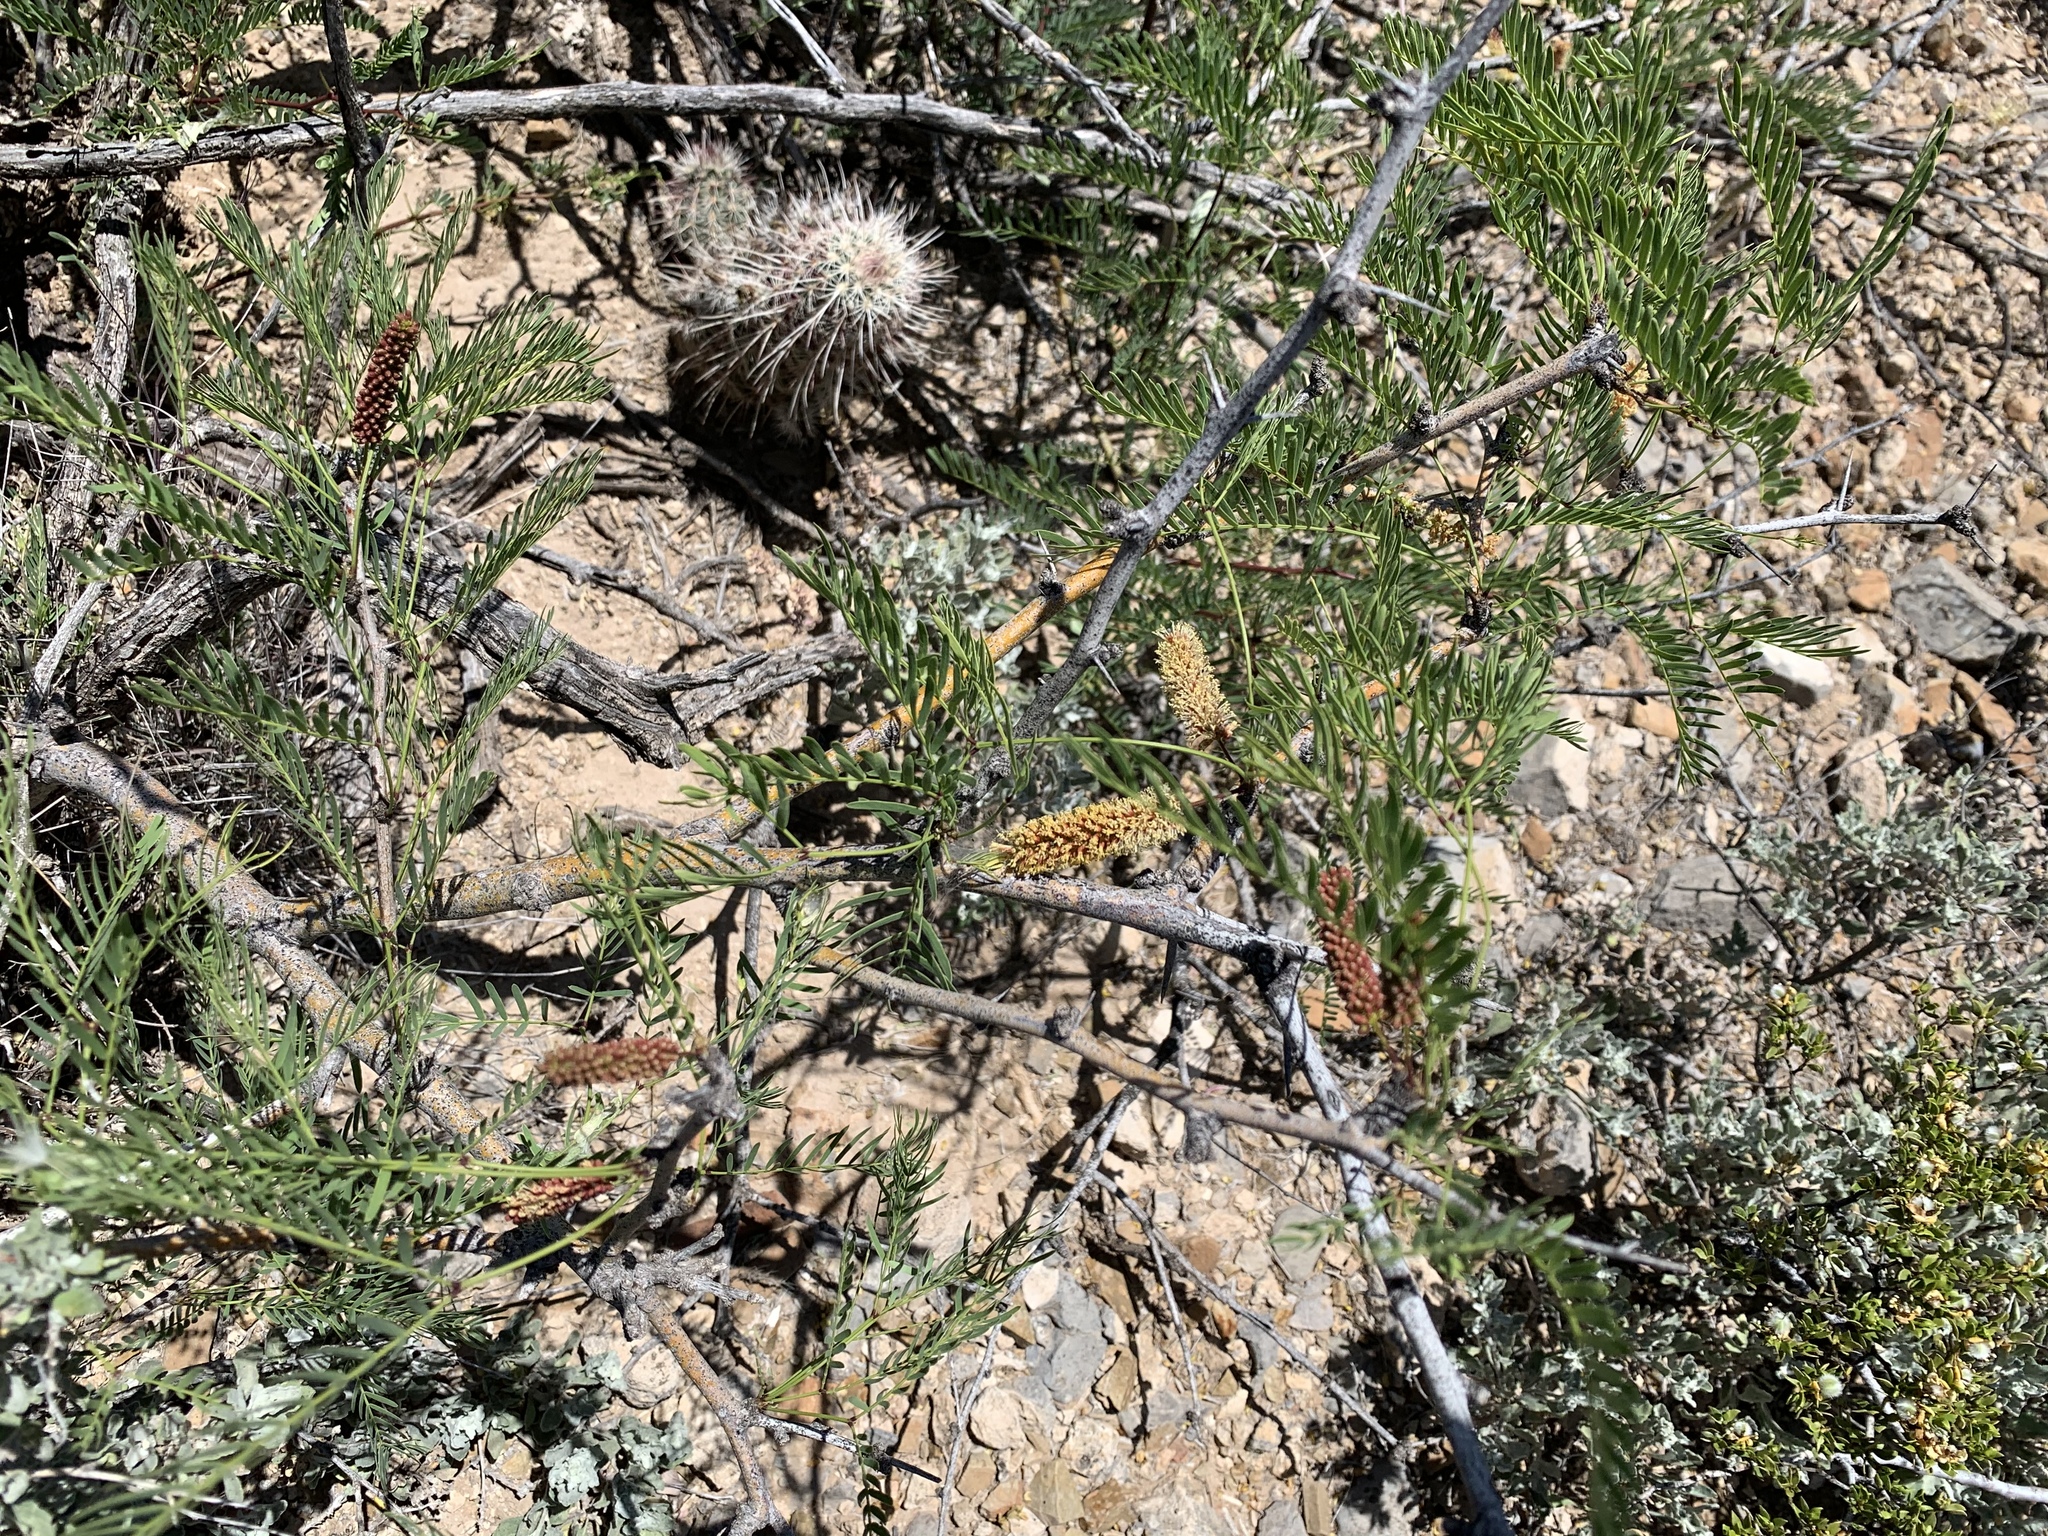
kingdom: Plantae
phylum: Tracheophyta
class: Magnoliopsida
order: Fabales
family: Fabaceae
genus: Prosopis
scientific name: Prosopis glandulosa
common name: Honey mesquite
